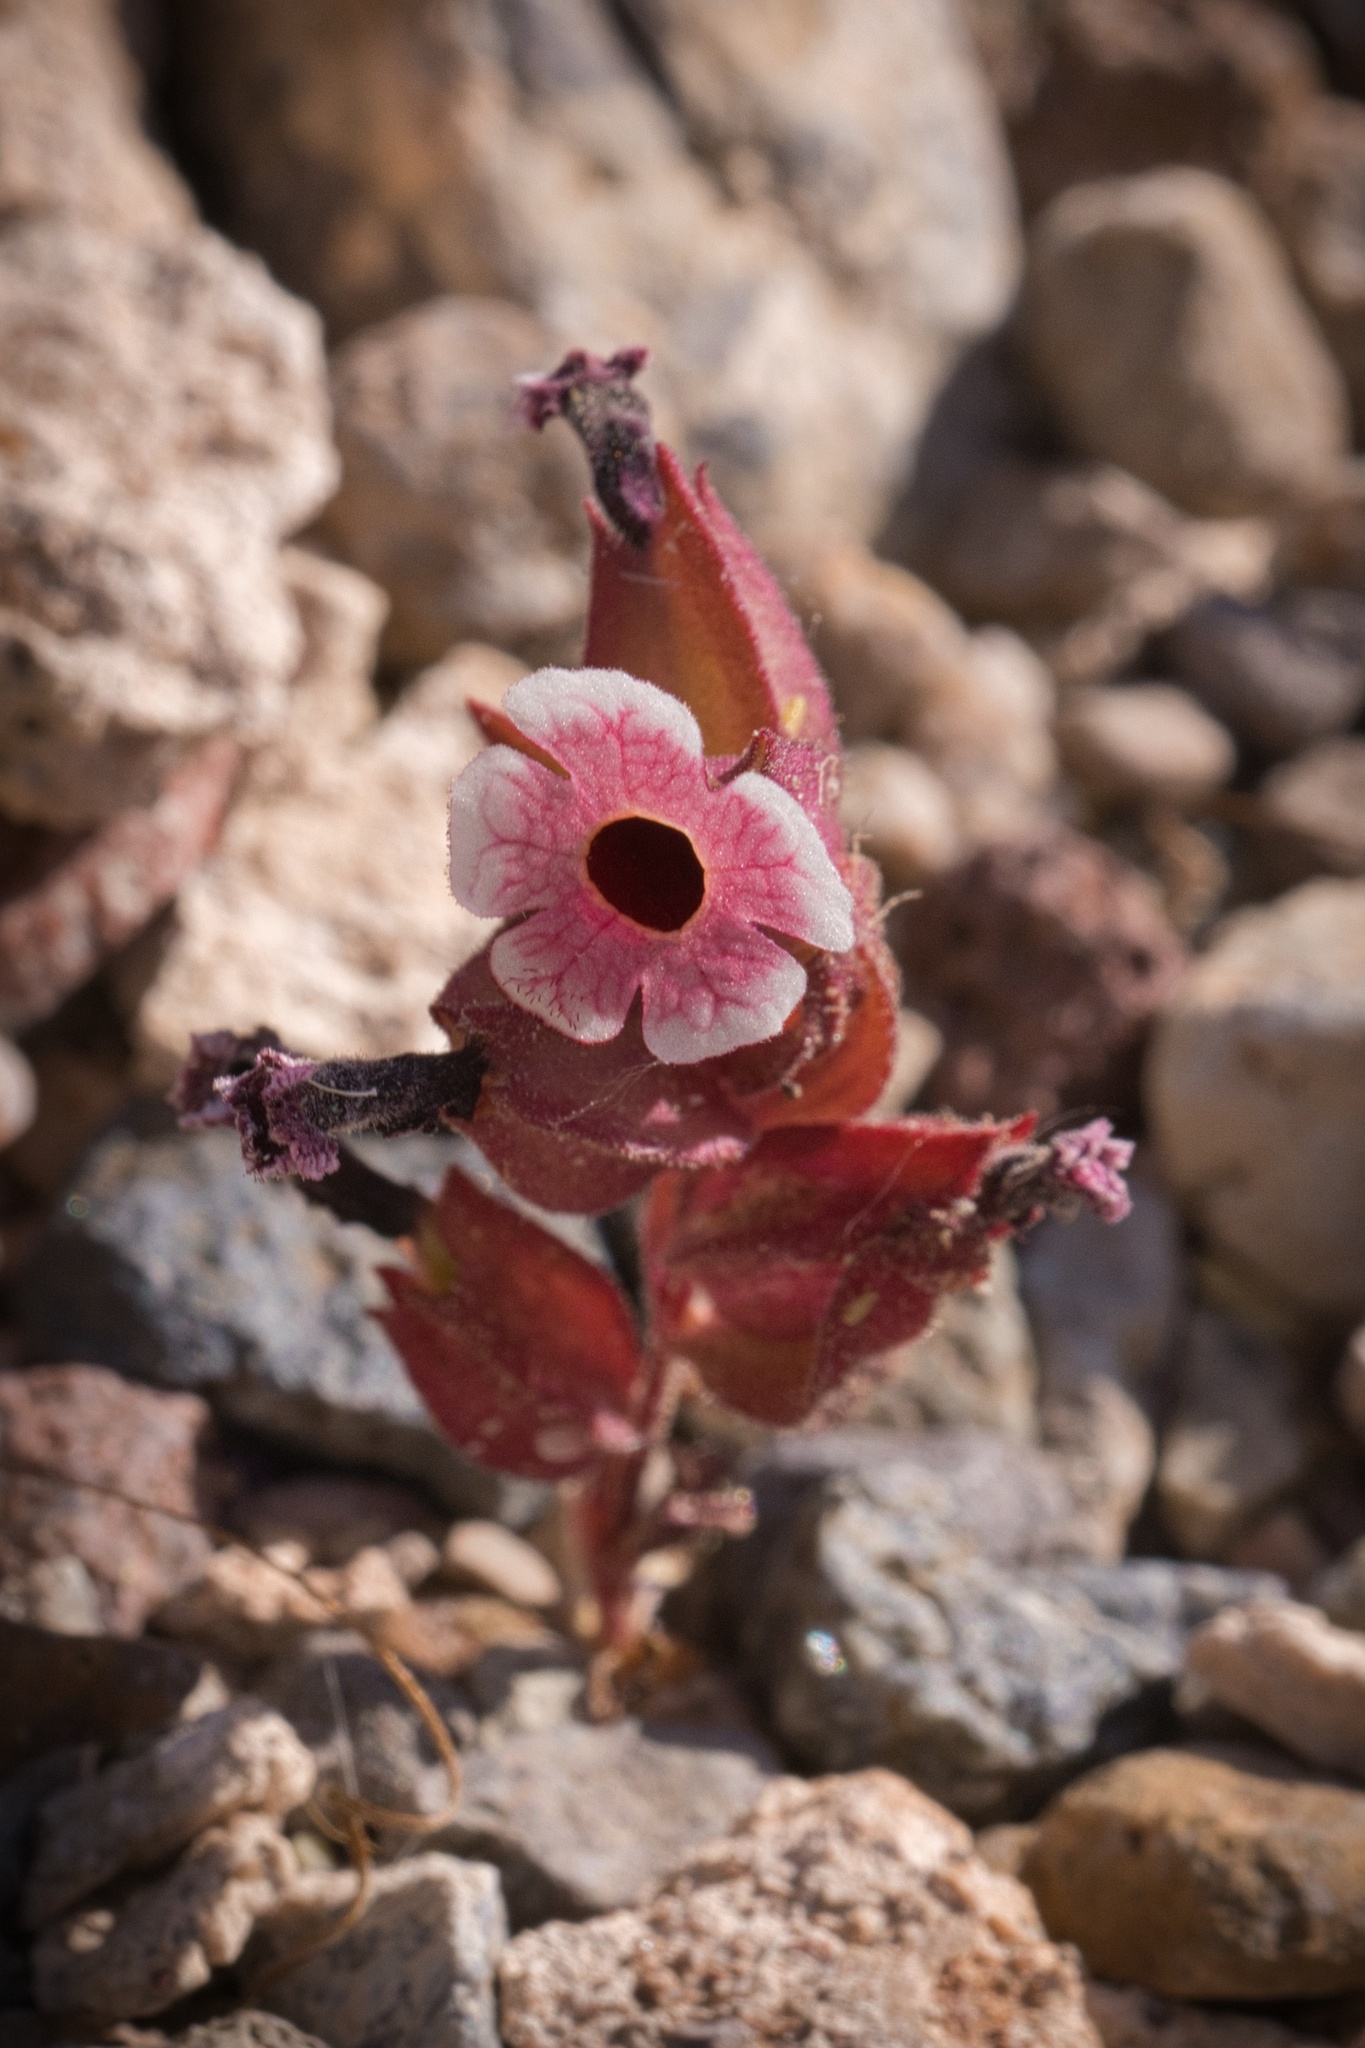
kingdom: Plantae
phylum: Tracheophyta
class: Magnoliopsida
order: Lamiales
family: Phrymaceae
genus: Diplacus
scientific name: Diplacus mohavensis
